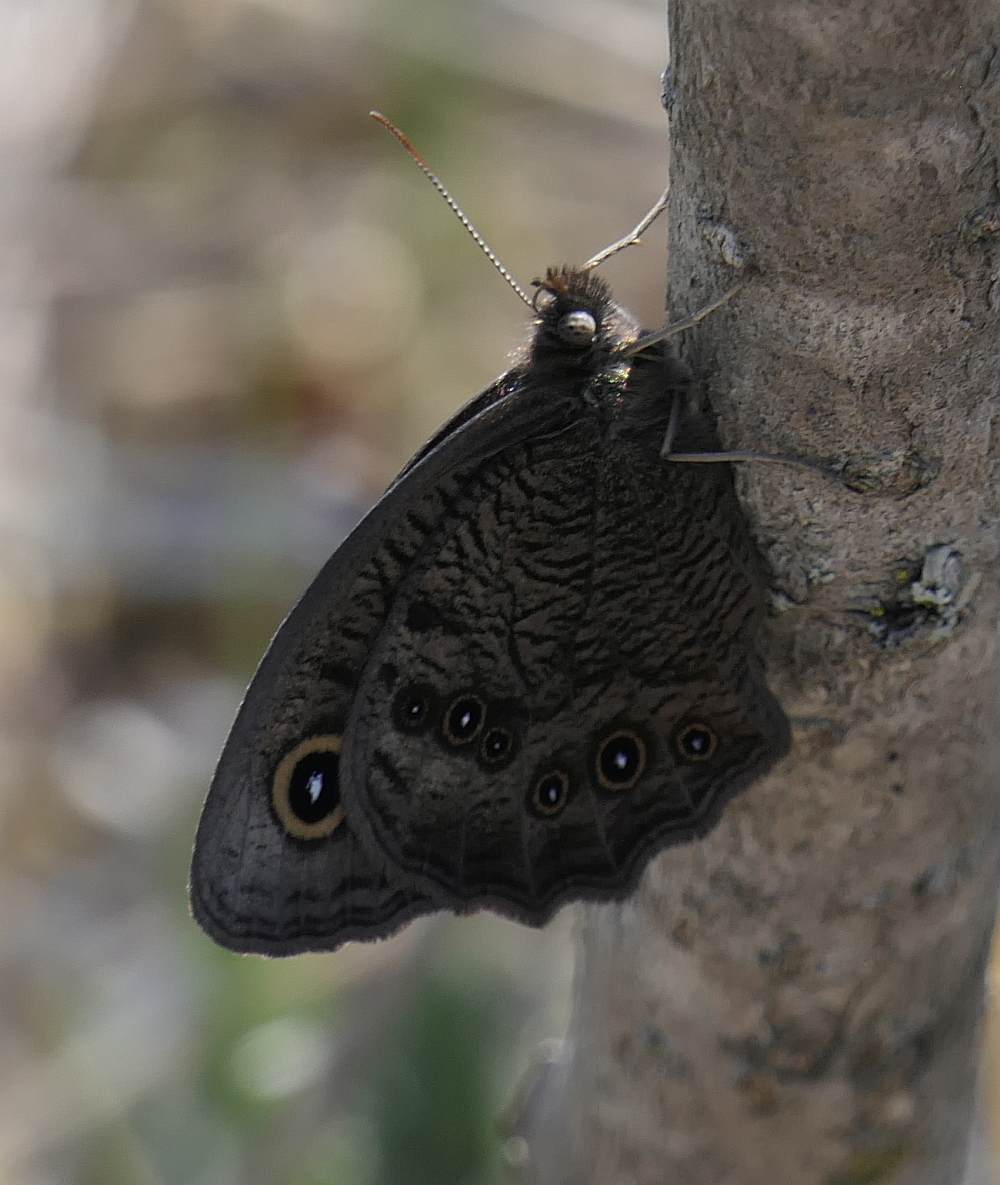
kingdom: Animalia
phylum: Arthropoda
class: Insecta
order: Lepidoptera
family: Nymphalidae
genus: Cercyonis
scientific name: Cercyonis pegala
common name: Common wood-nymph
